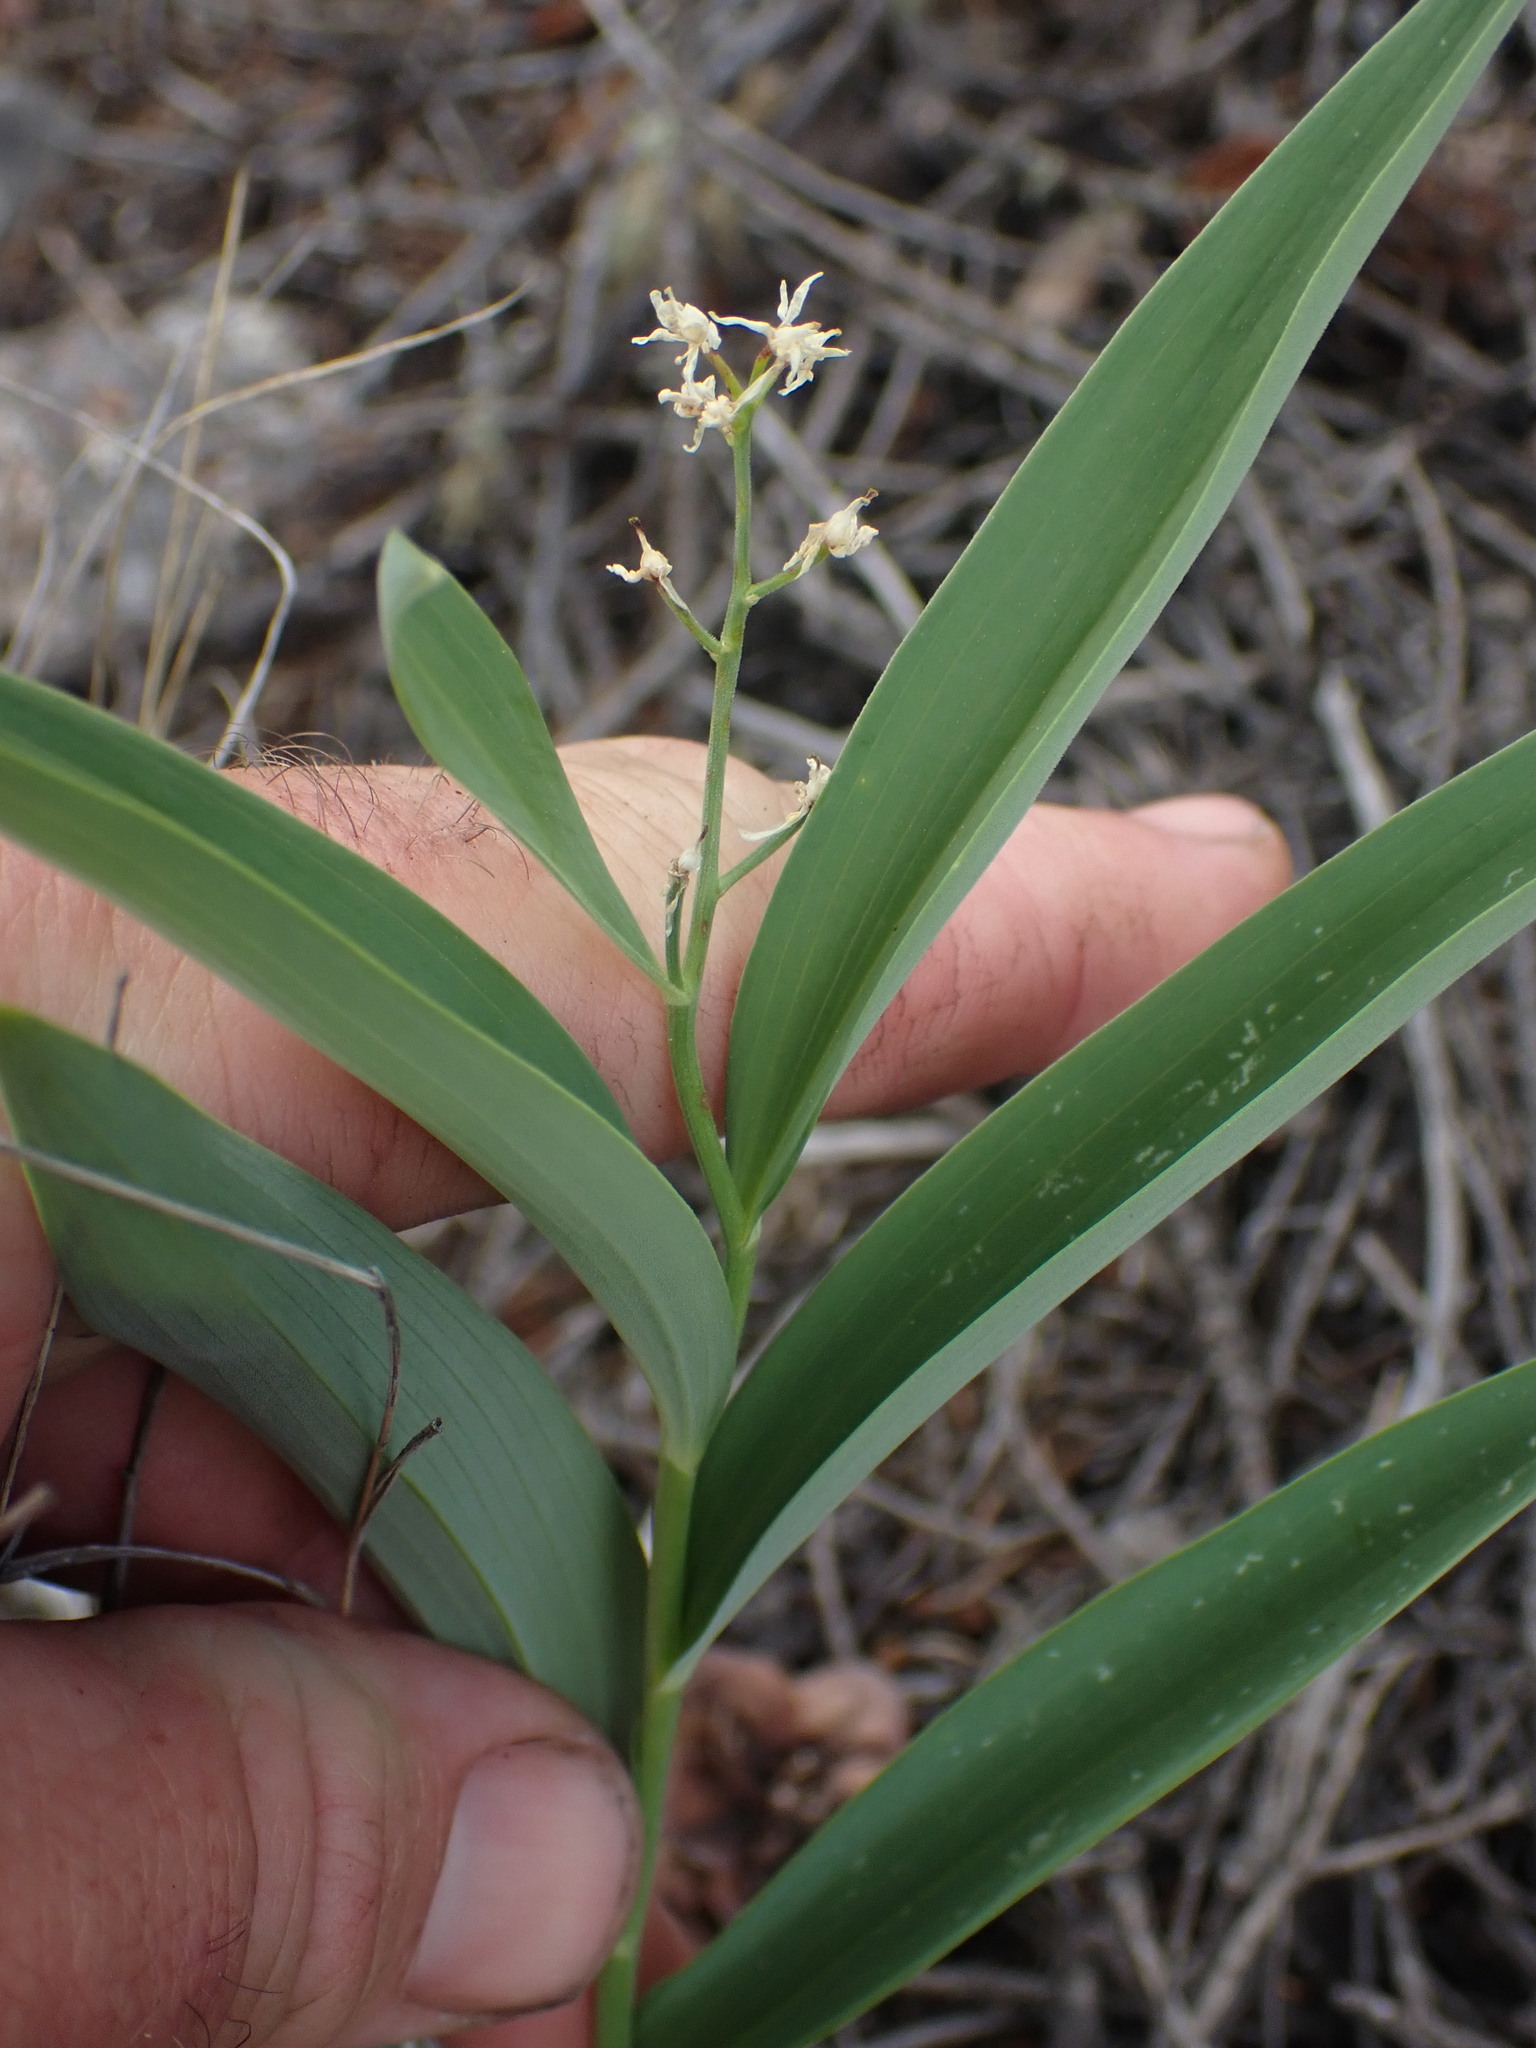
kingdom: Plantae
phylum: Tracheophyta
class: Liliopsida
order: Asparagales
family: Asparagaceae
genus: Maianthemum
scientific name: Maianthemum stellatum
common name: Little false solomon's seal
